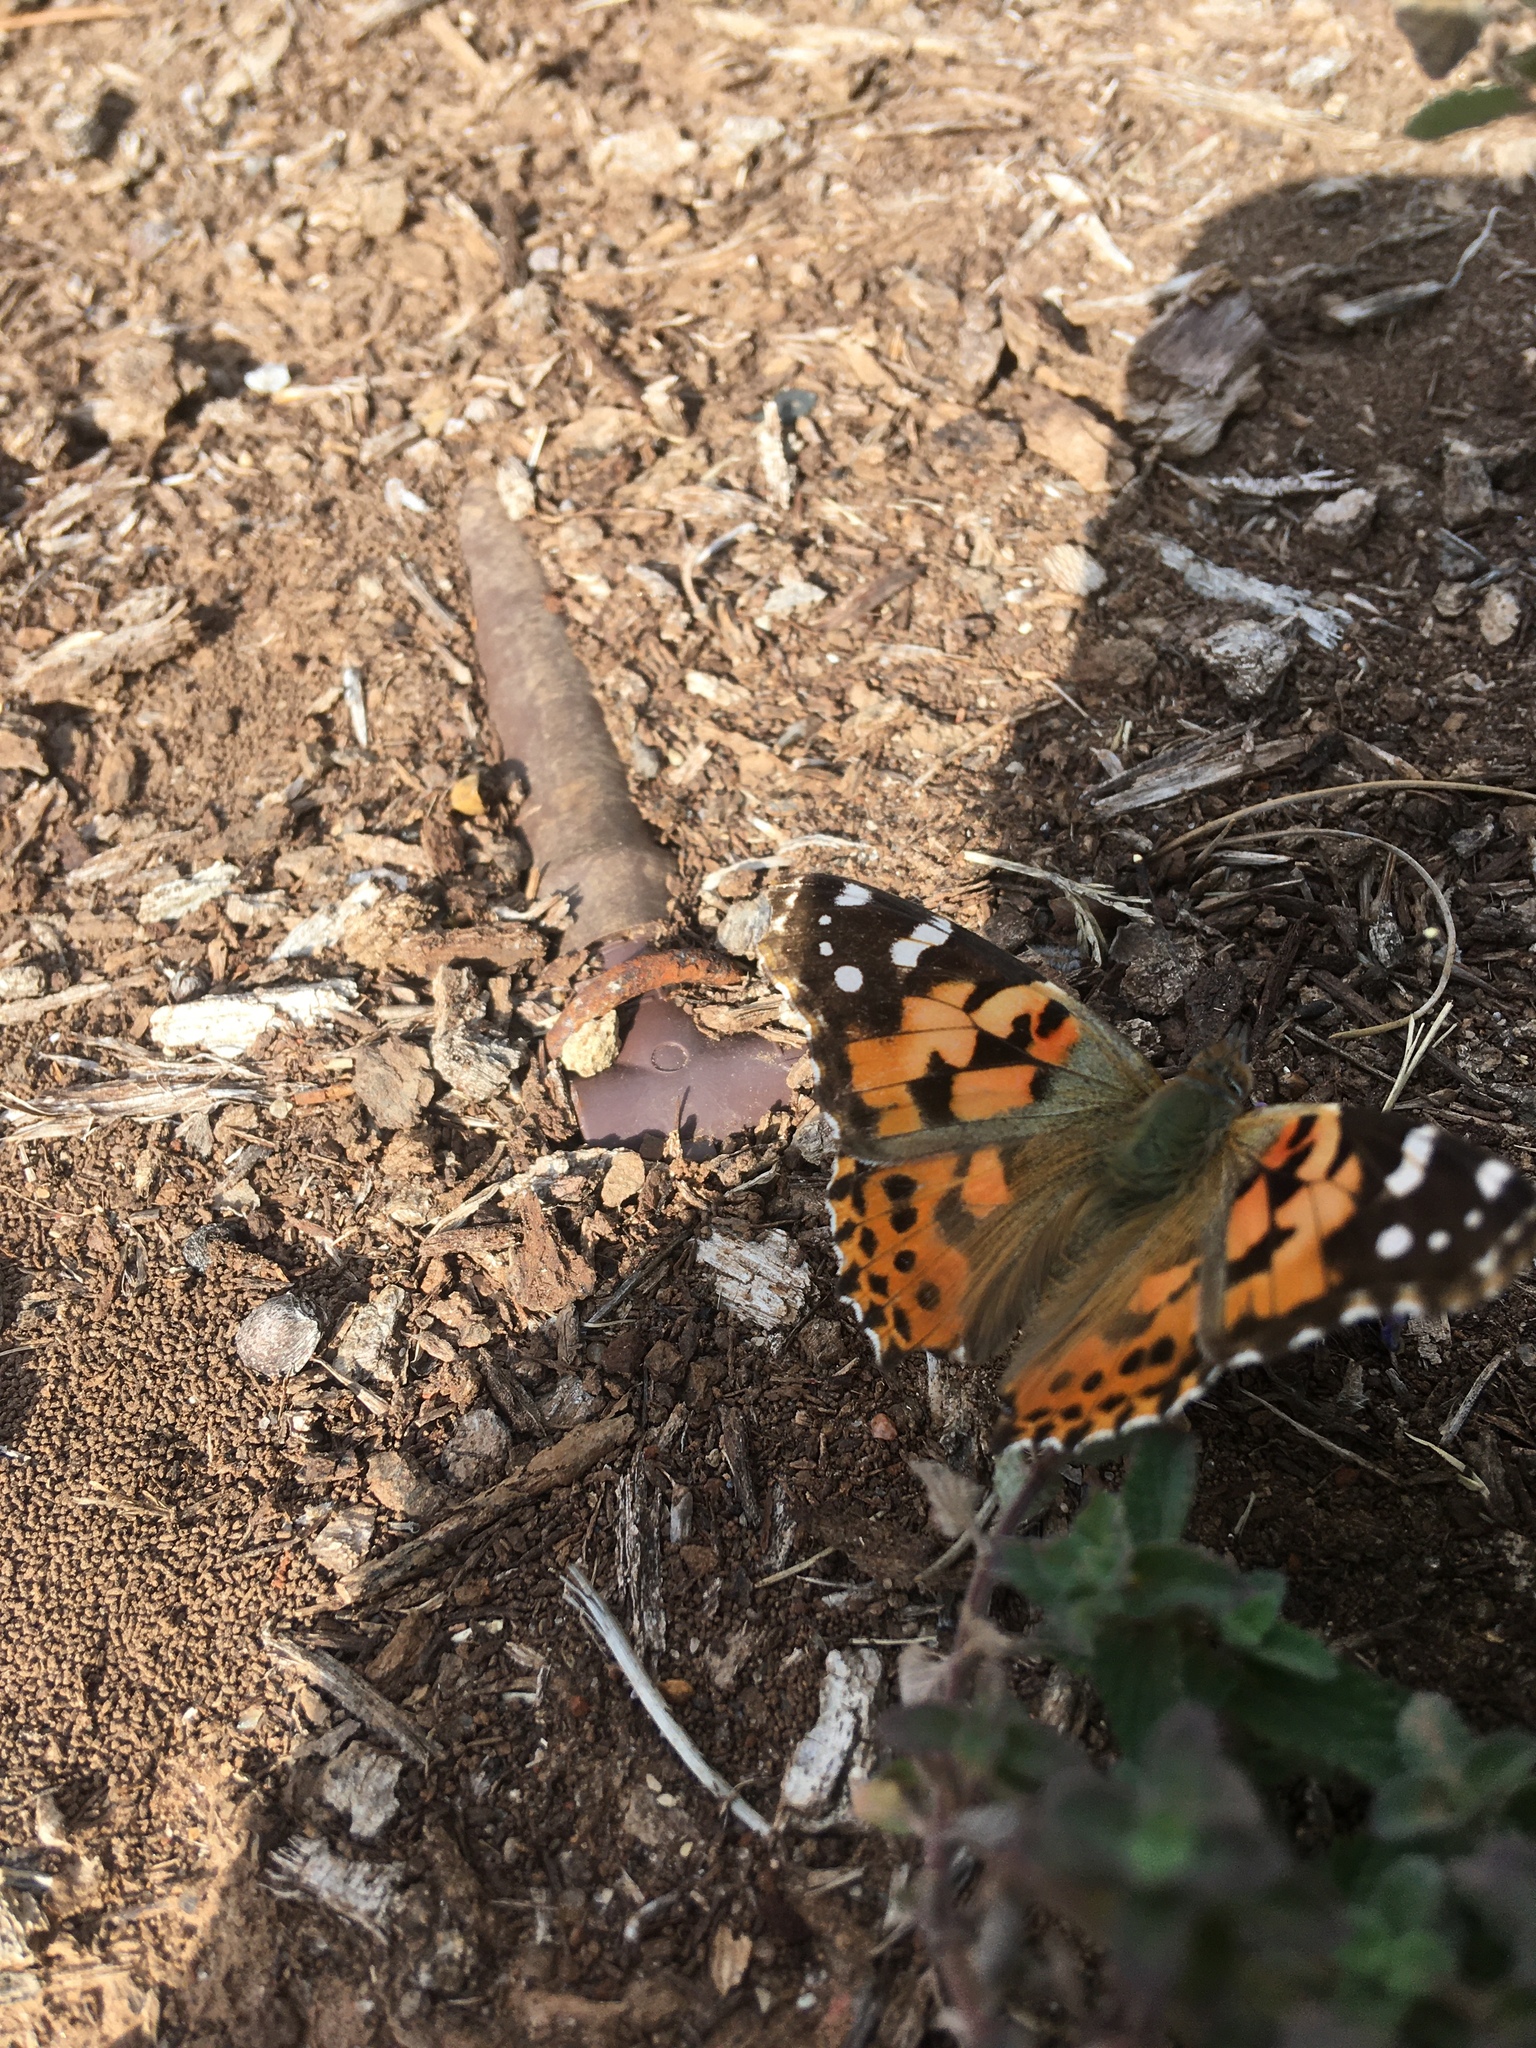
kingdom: Animalia
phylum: Arthropoda
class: Insecta
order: Lepidoptera
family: Nymphalidae
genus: Vanessa
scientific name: Vanessa cardui
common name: Painted lady
